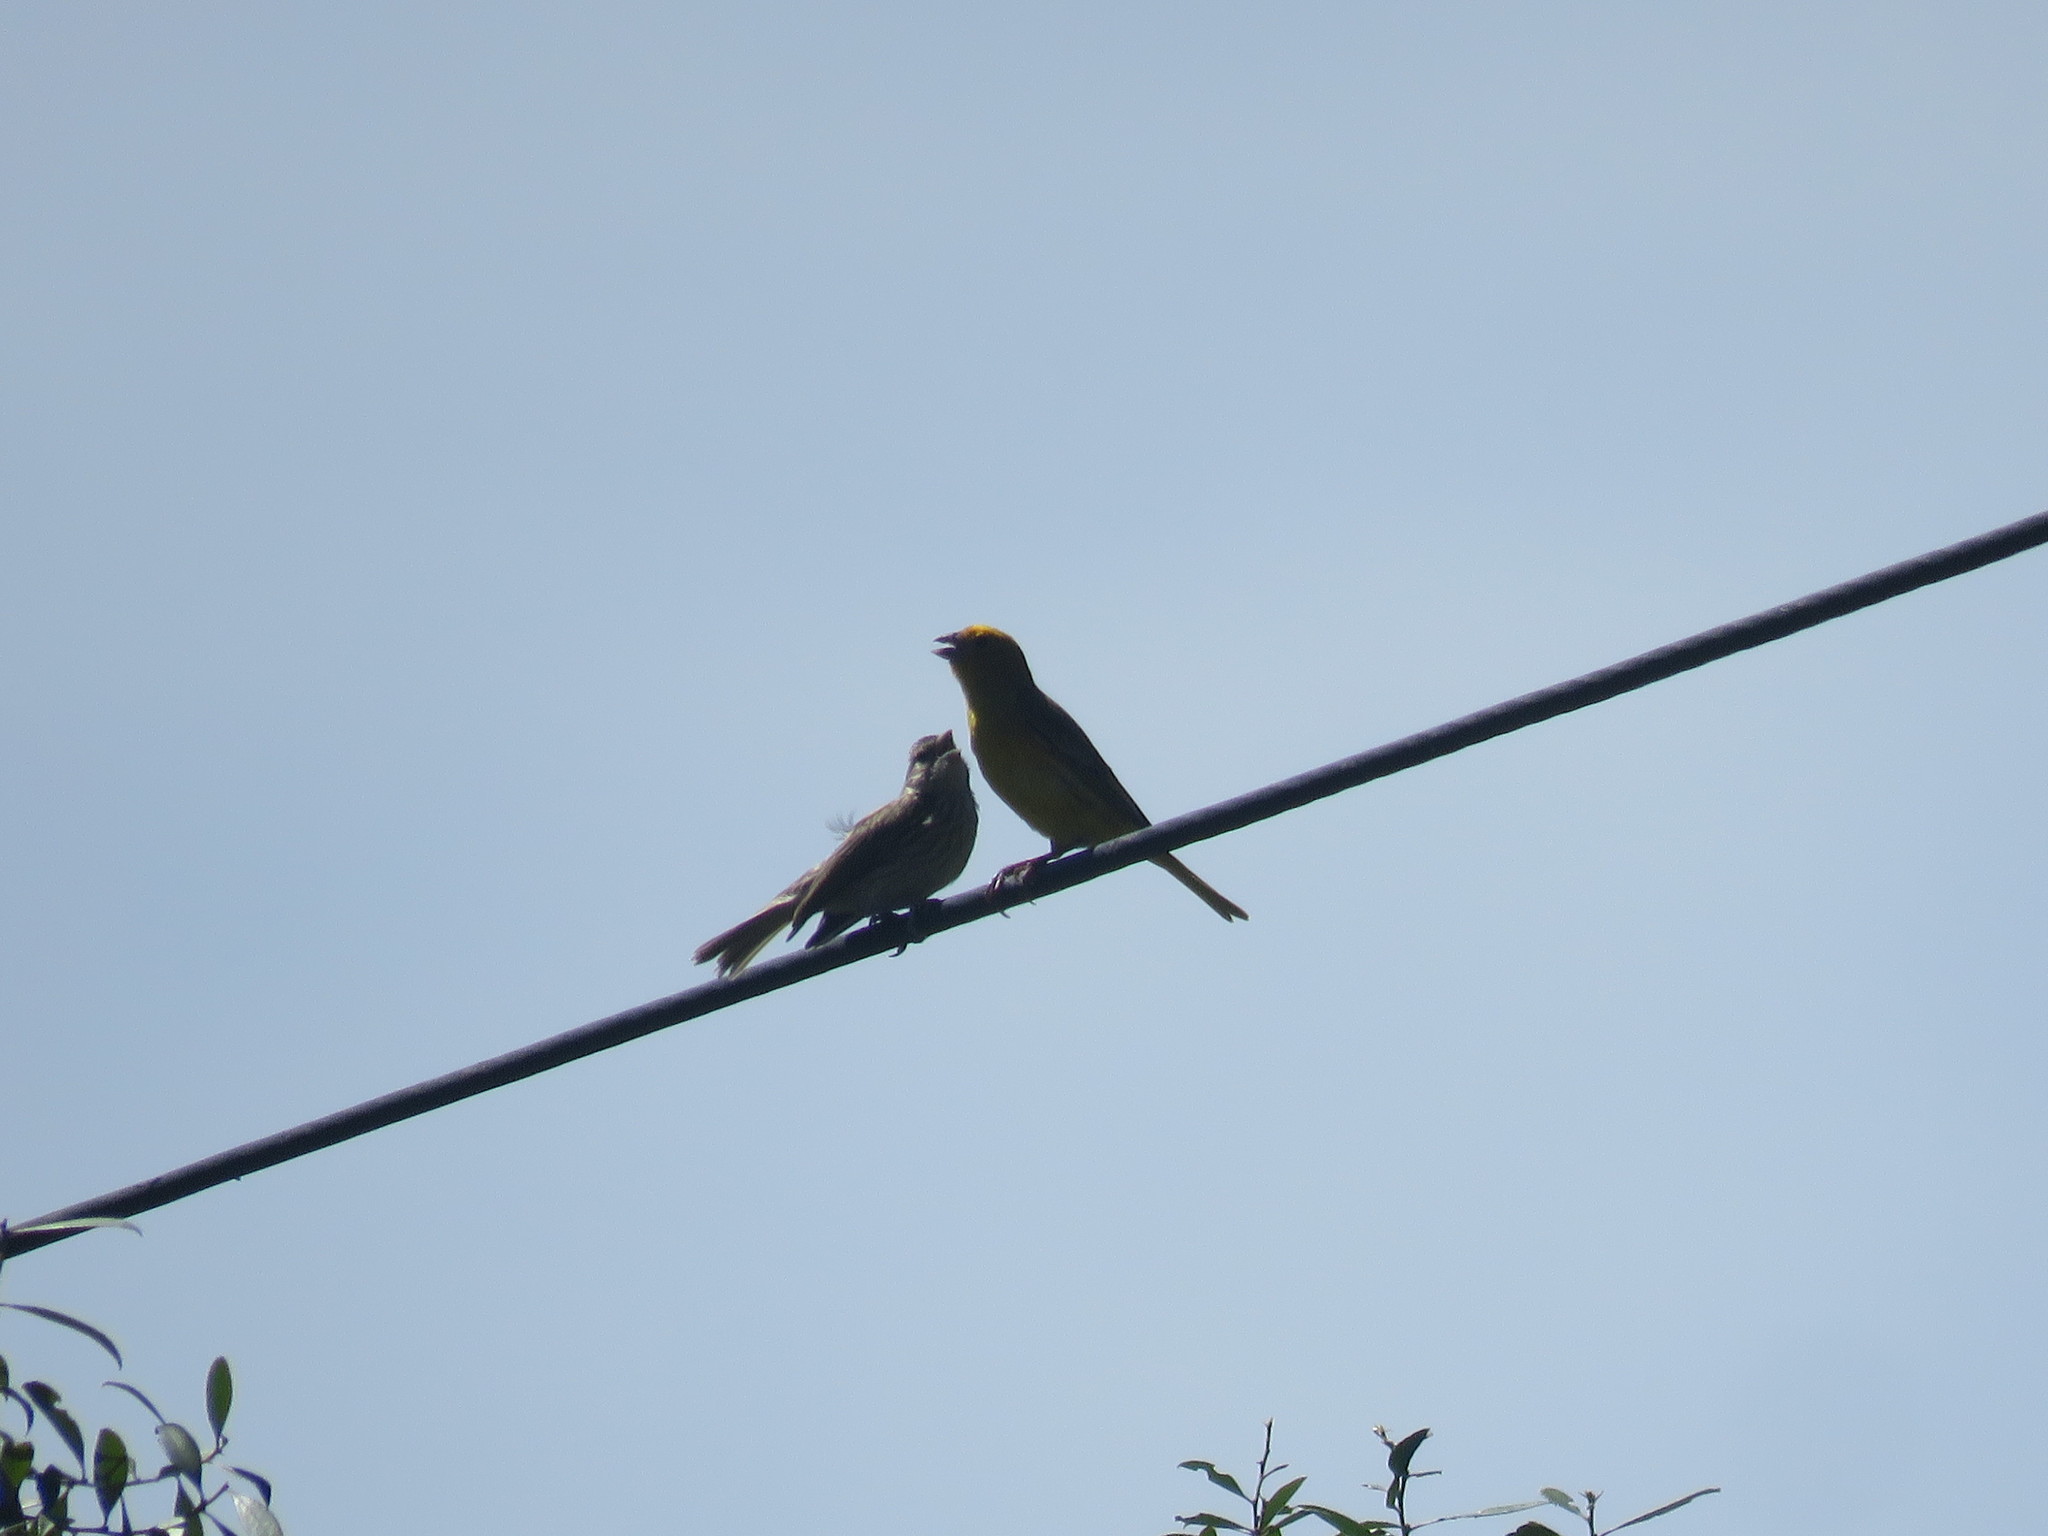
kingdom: Animalia
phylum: Chordata
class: Aves
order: Passeriformes
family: Thraupidae
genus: Sicalis
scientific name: Sicalis flaveola
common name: Saffron finch
